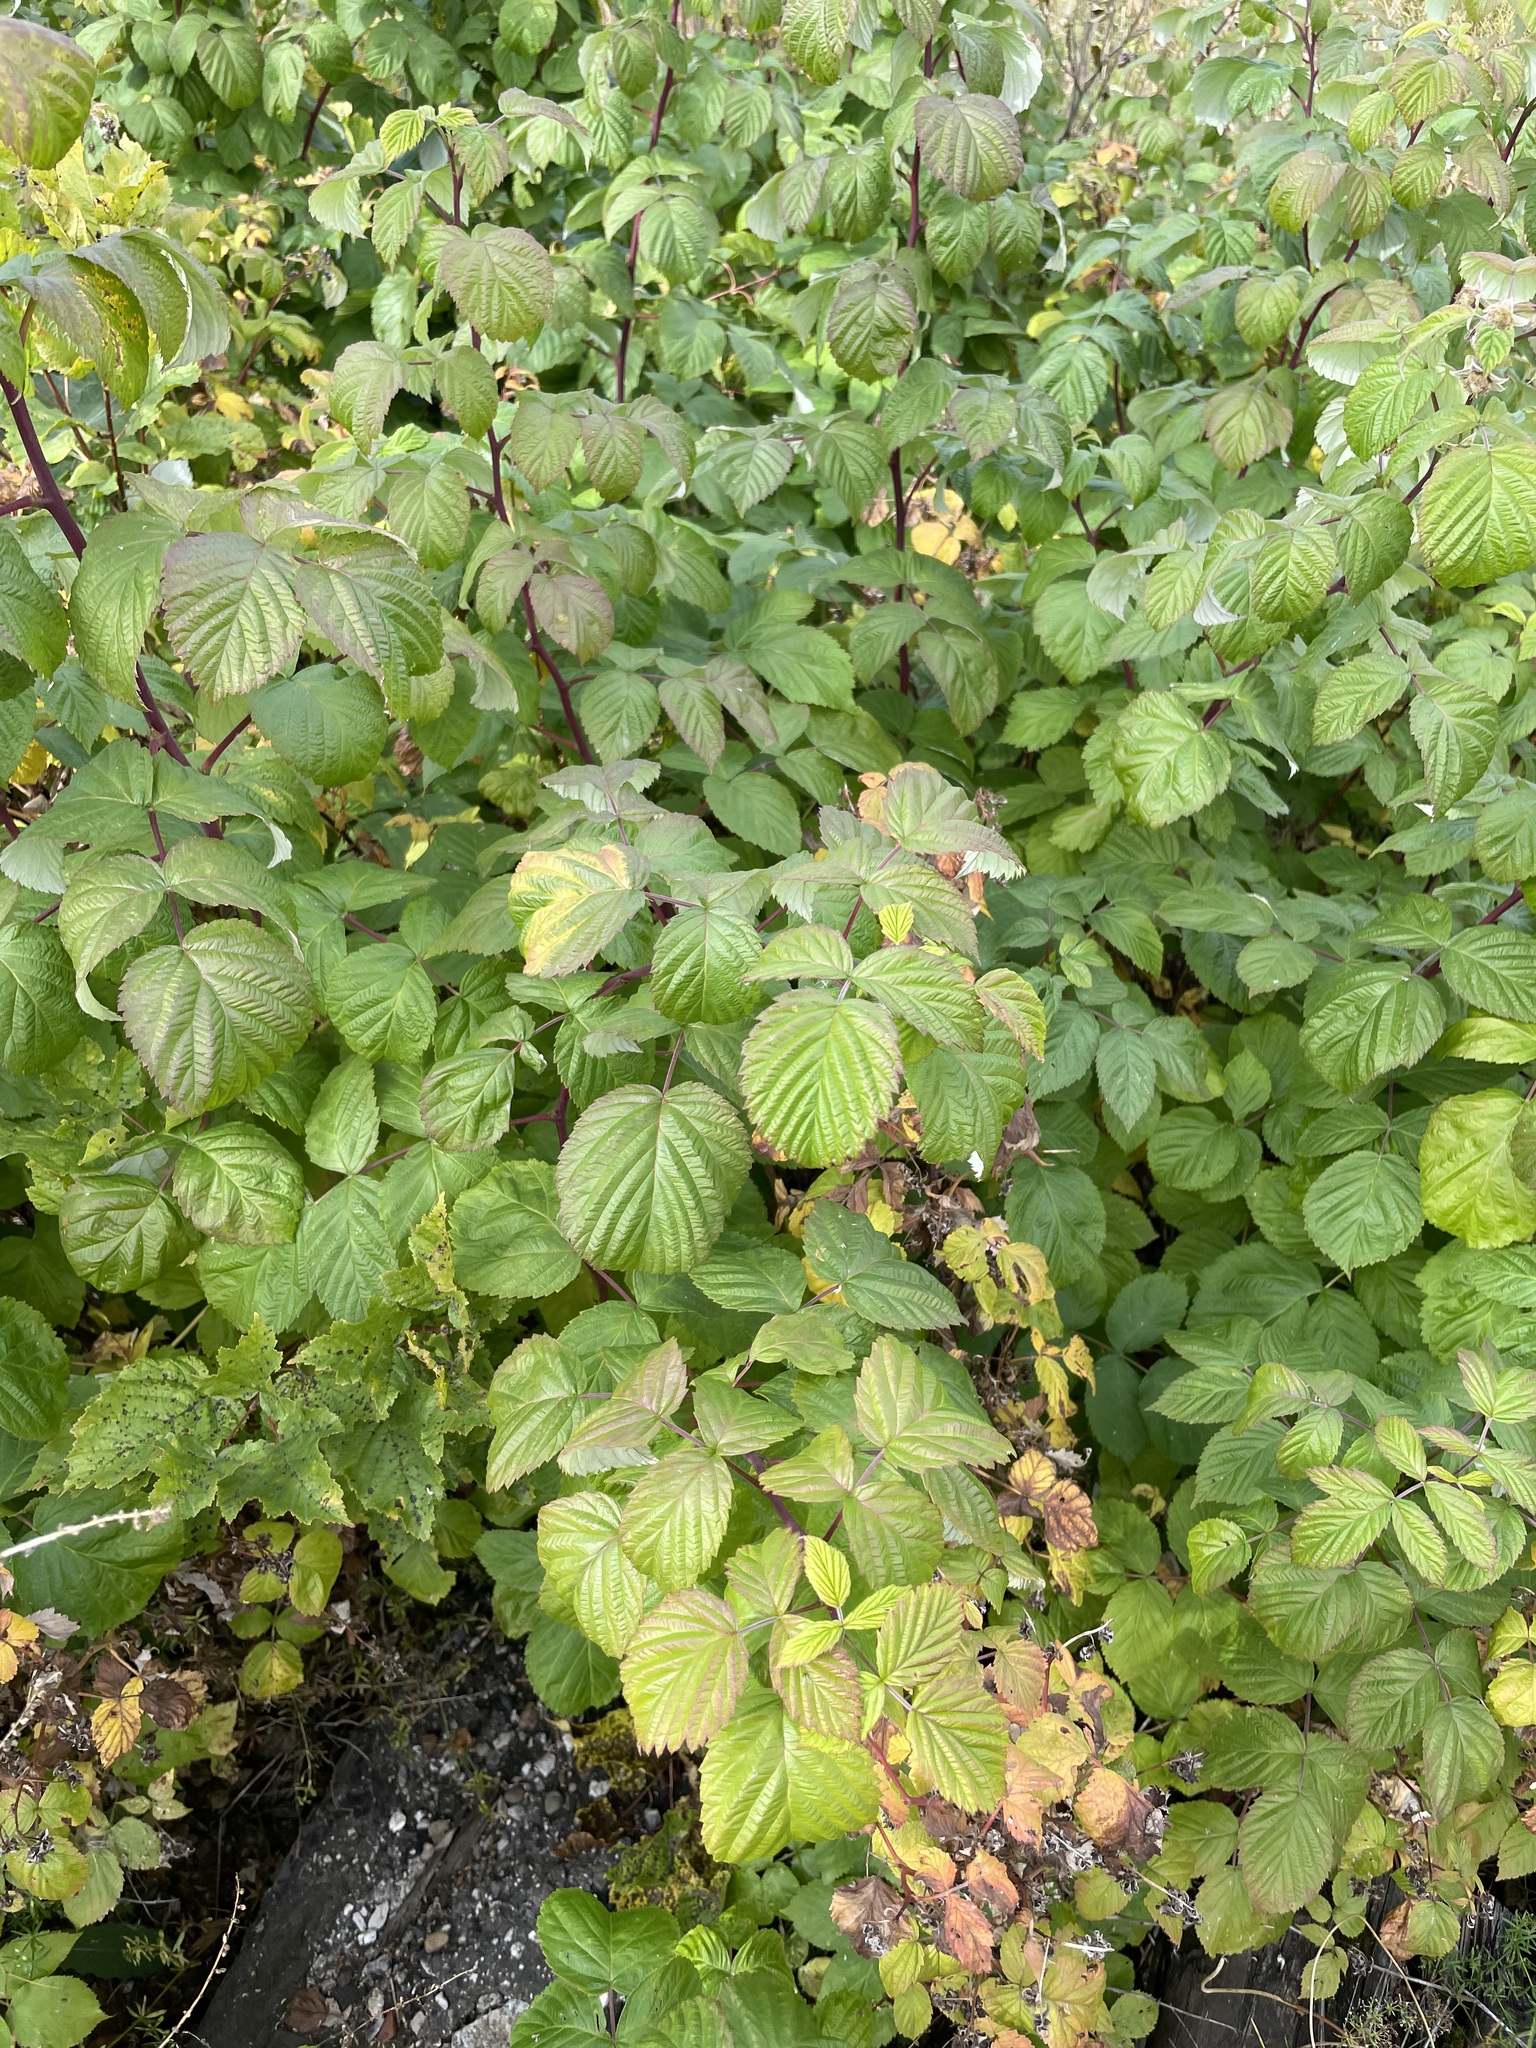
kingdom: Plantae
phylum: Tracheophyta
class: Magnoliopsida
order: Rosales
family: Rosaceae
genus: Rubus
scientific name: Rubus idaeus
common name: Raspberry
